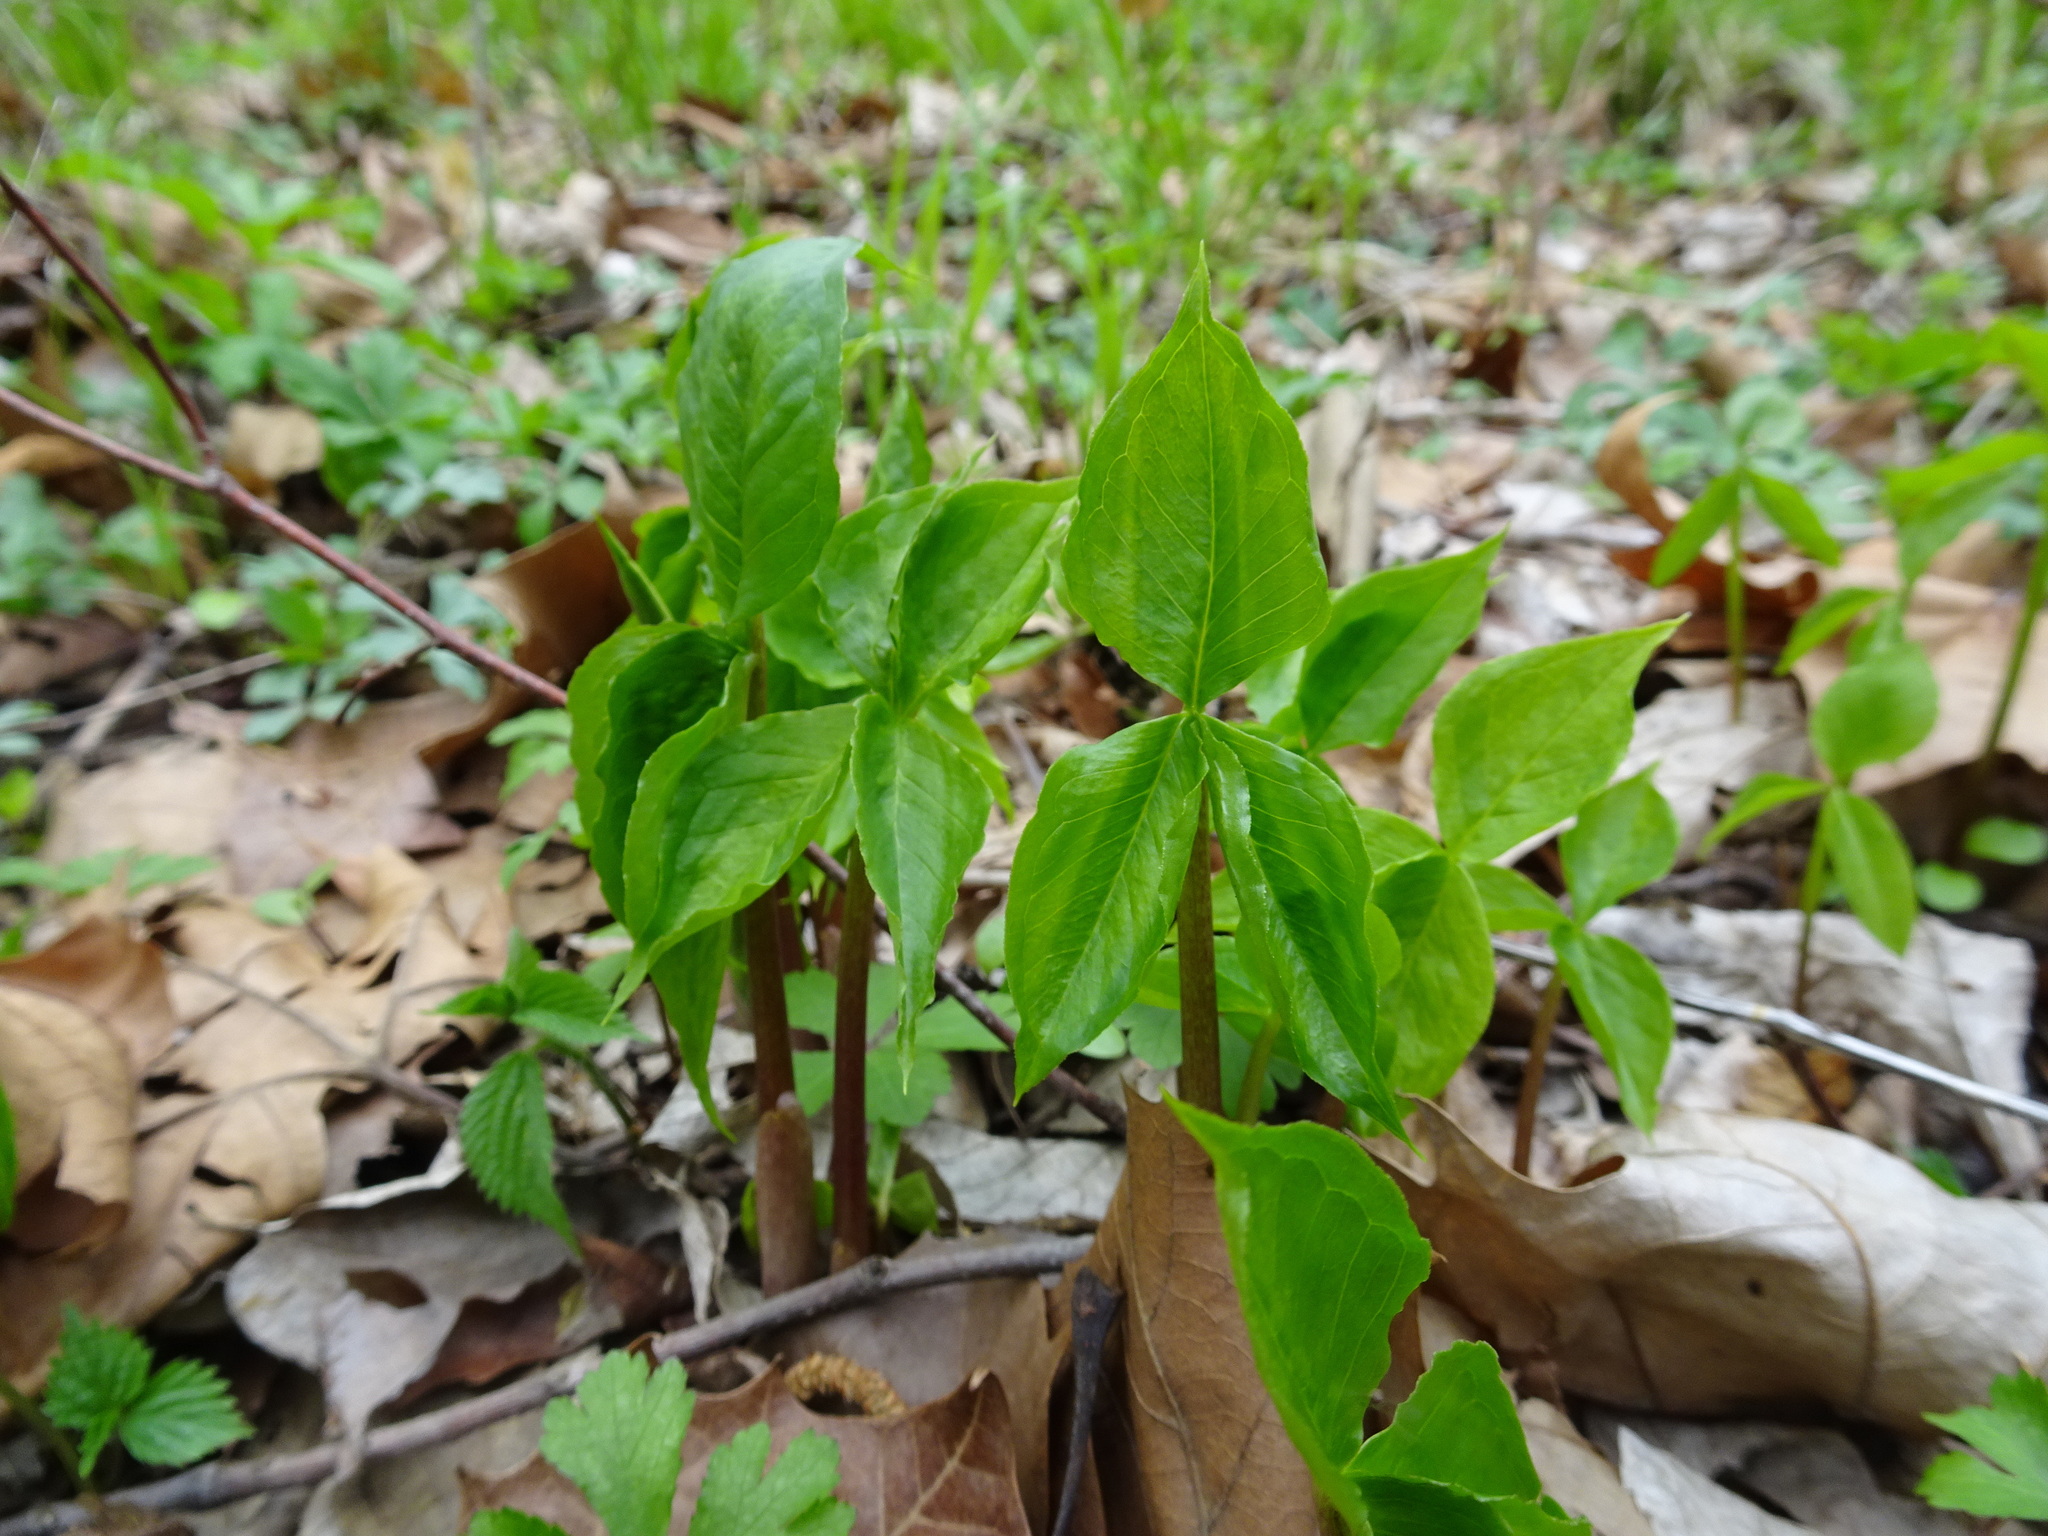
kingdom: Plantae
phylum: Tracheophyta
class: Liliopsida
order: Alismatales
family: Araceae
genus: Arisaema
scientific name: Arisaema triphyllum
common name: Jack-in-the-pulpit
